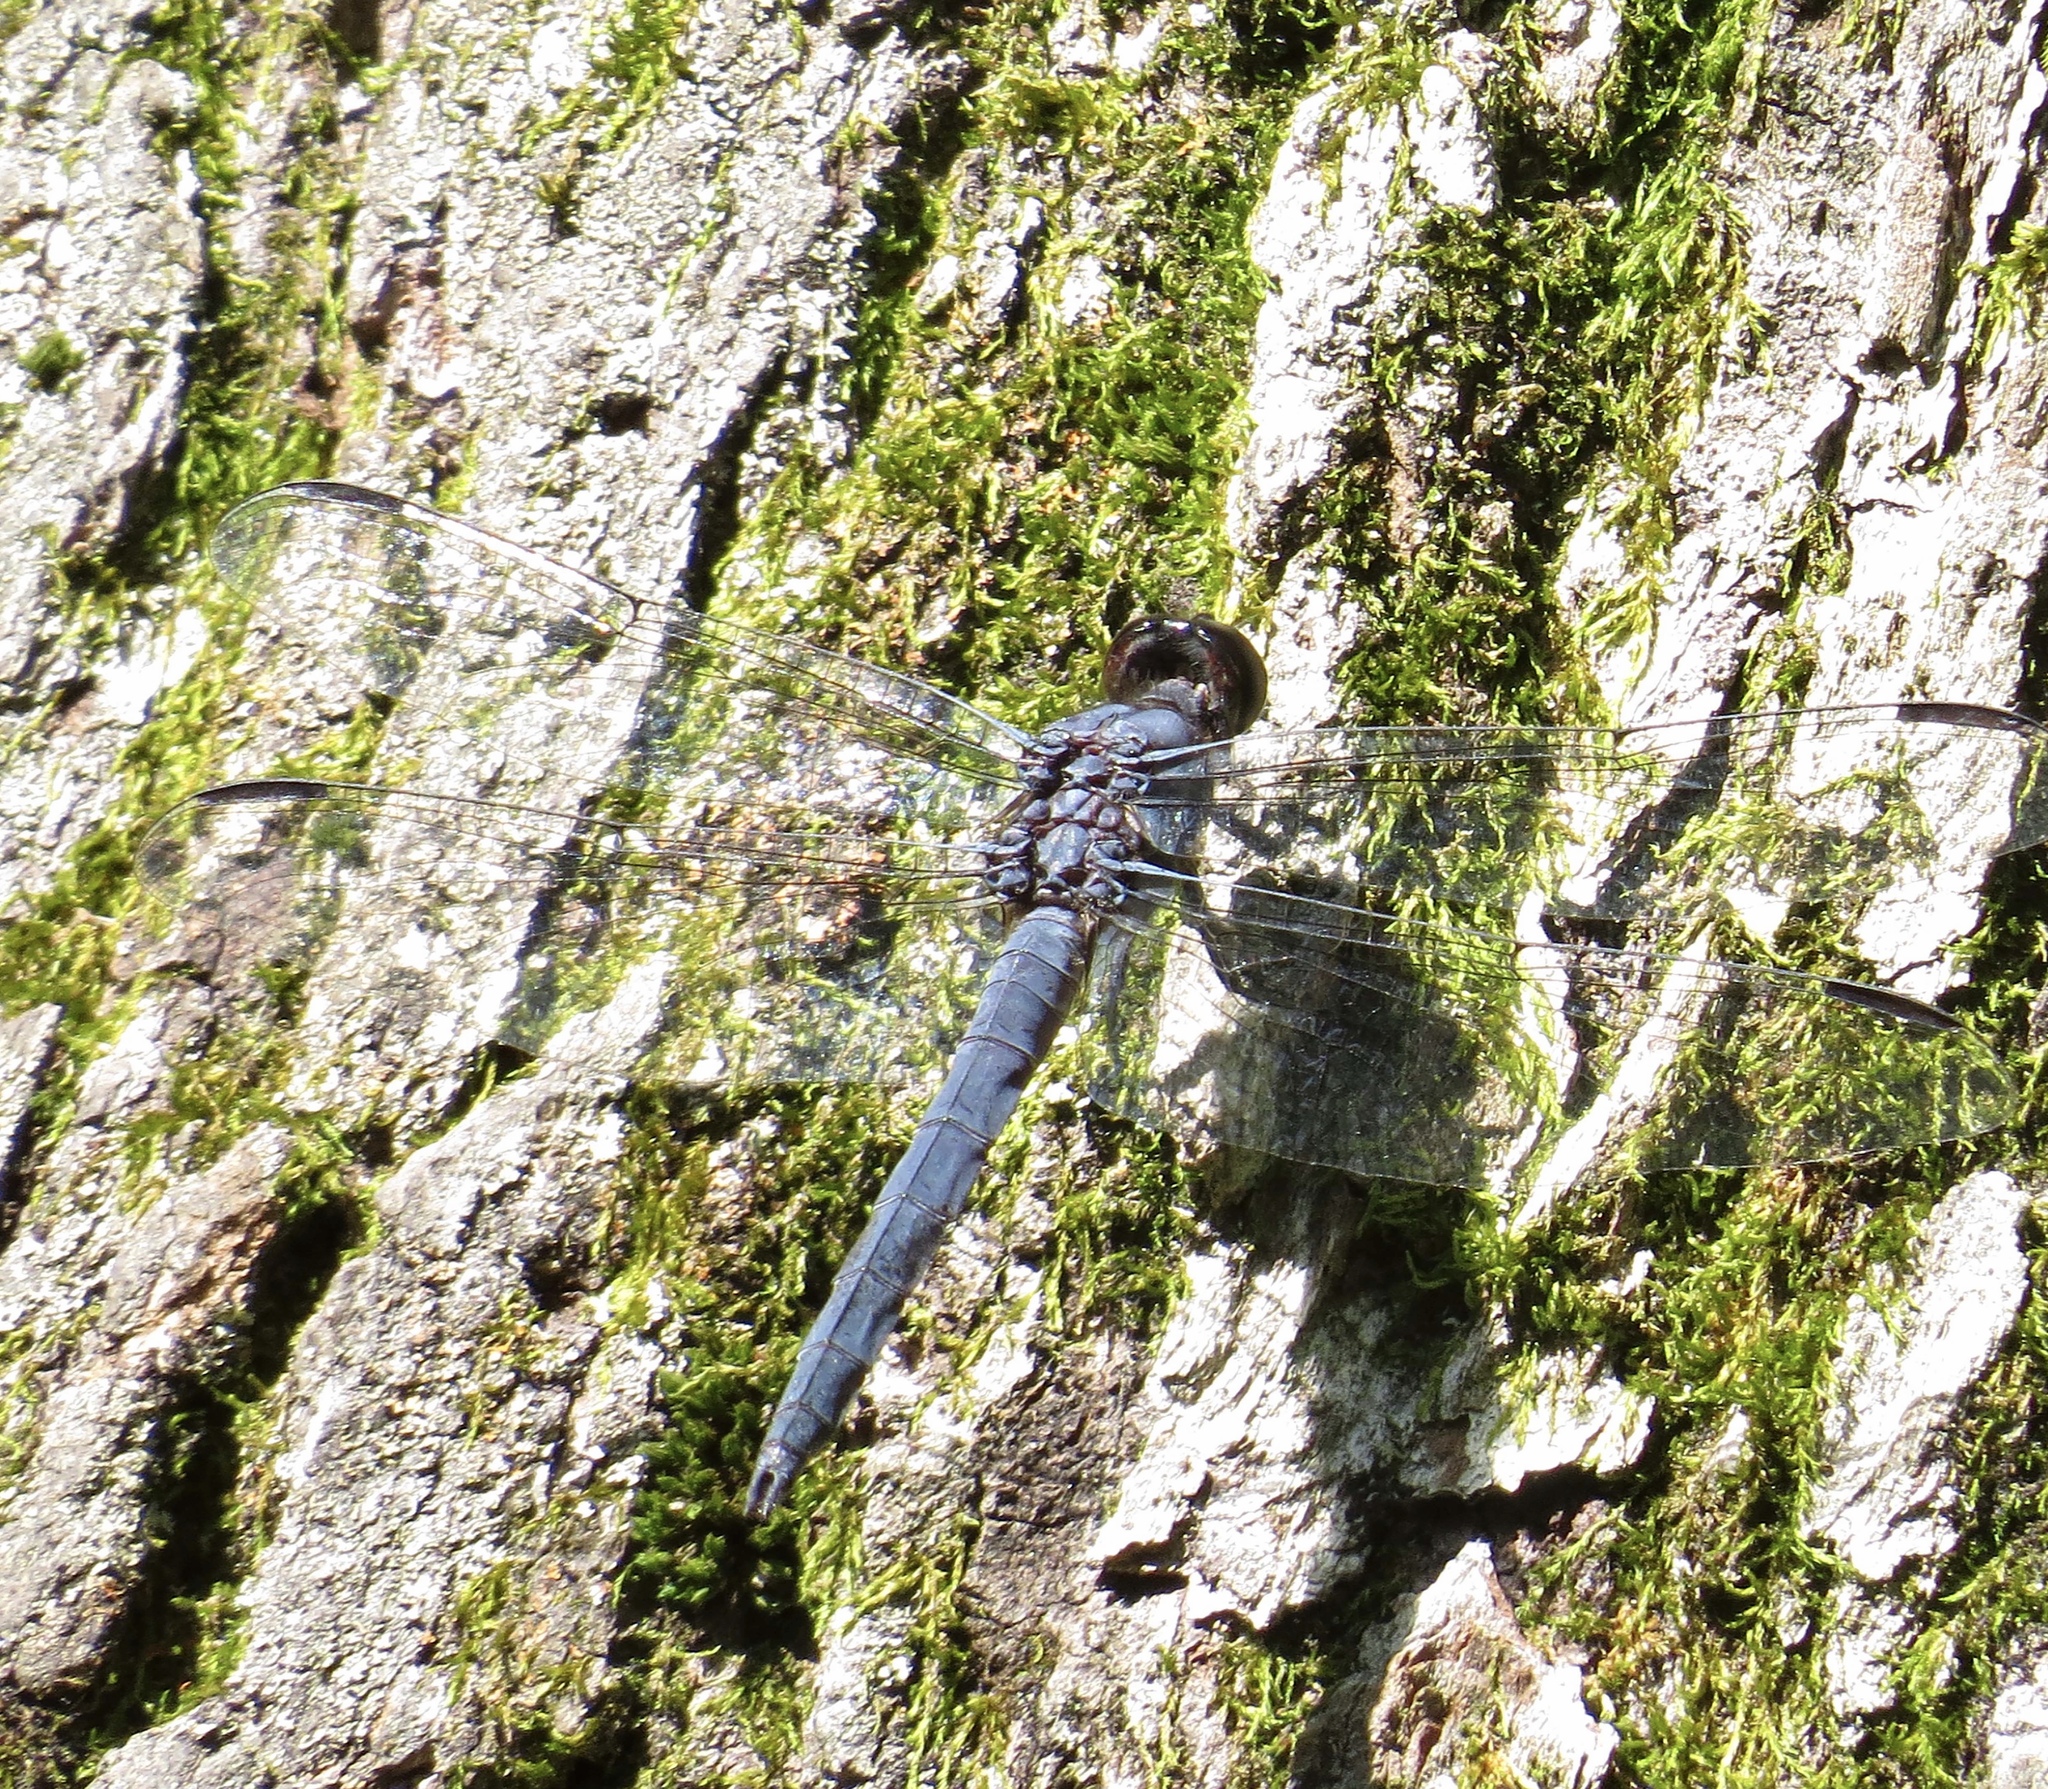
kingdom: Animalia
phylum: Arthropoda
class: Insecta
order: Odonata
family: Libellulidae
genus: Libellula
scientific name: Libellula incesta
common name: Slaty skimmer
